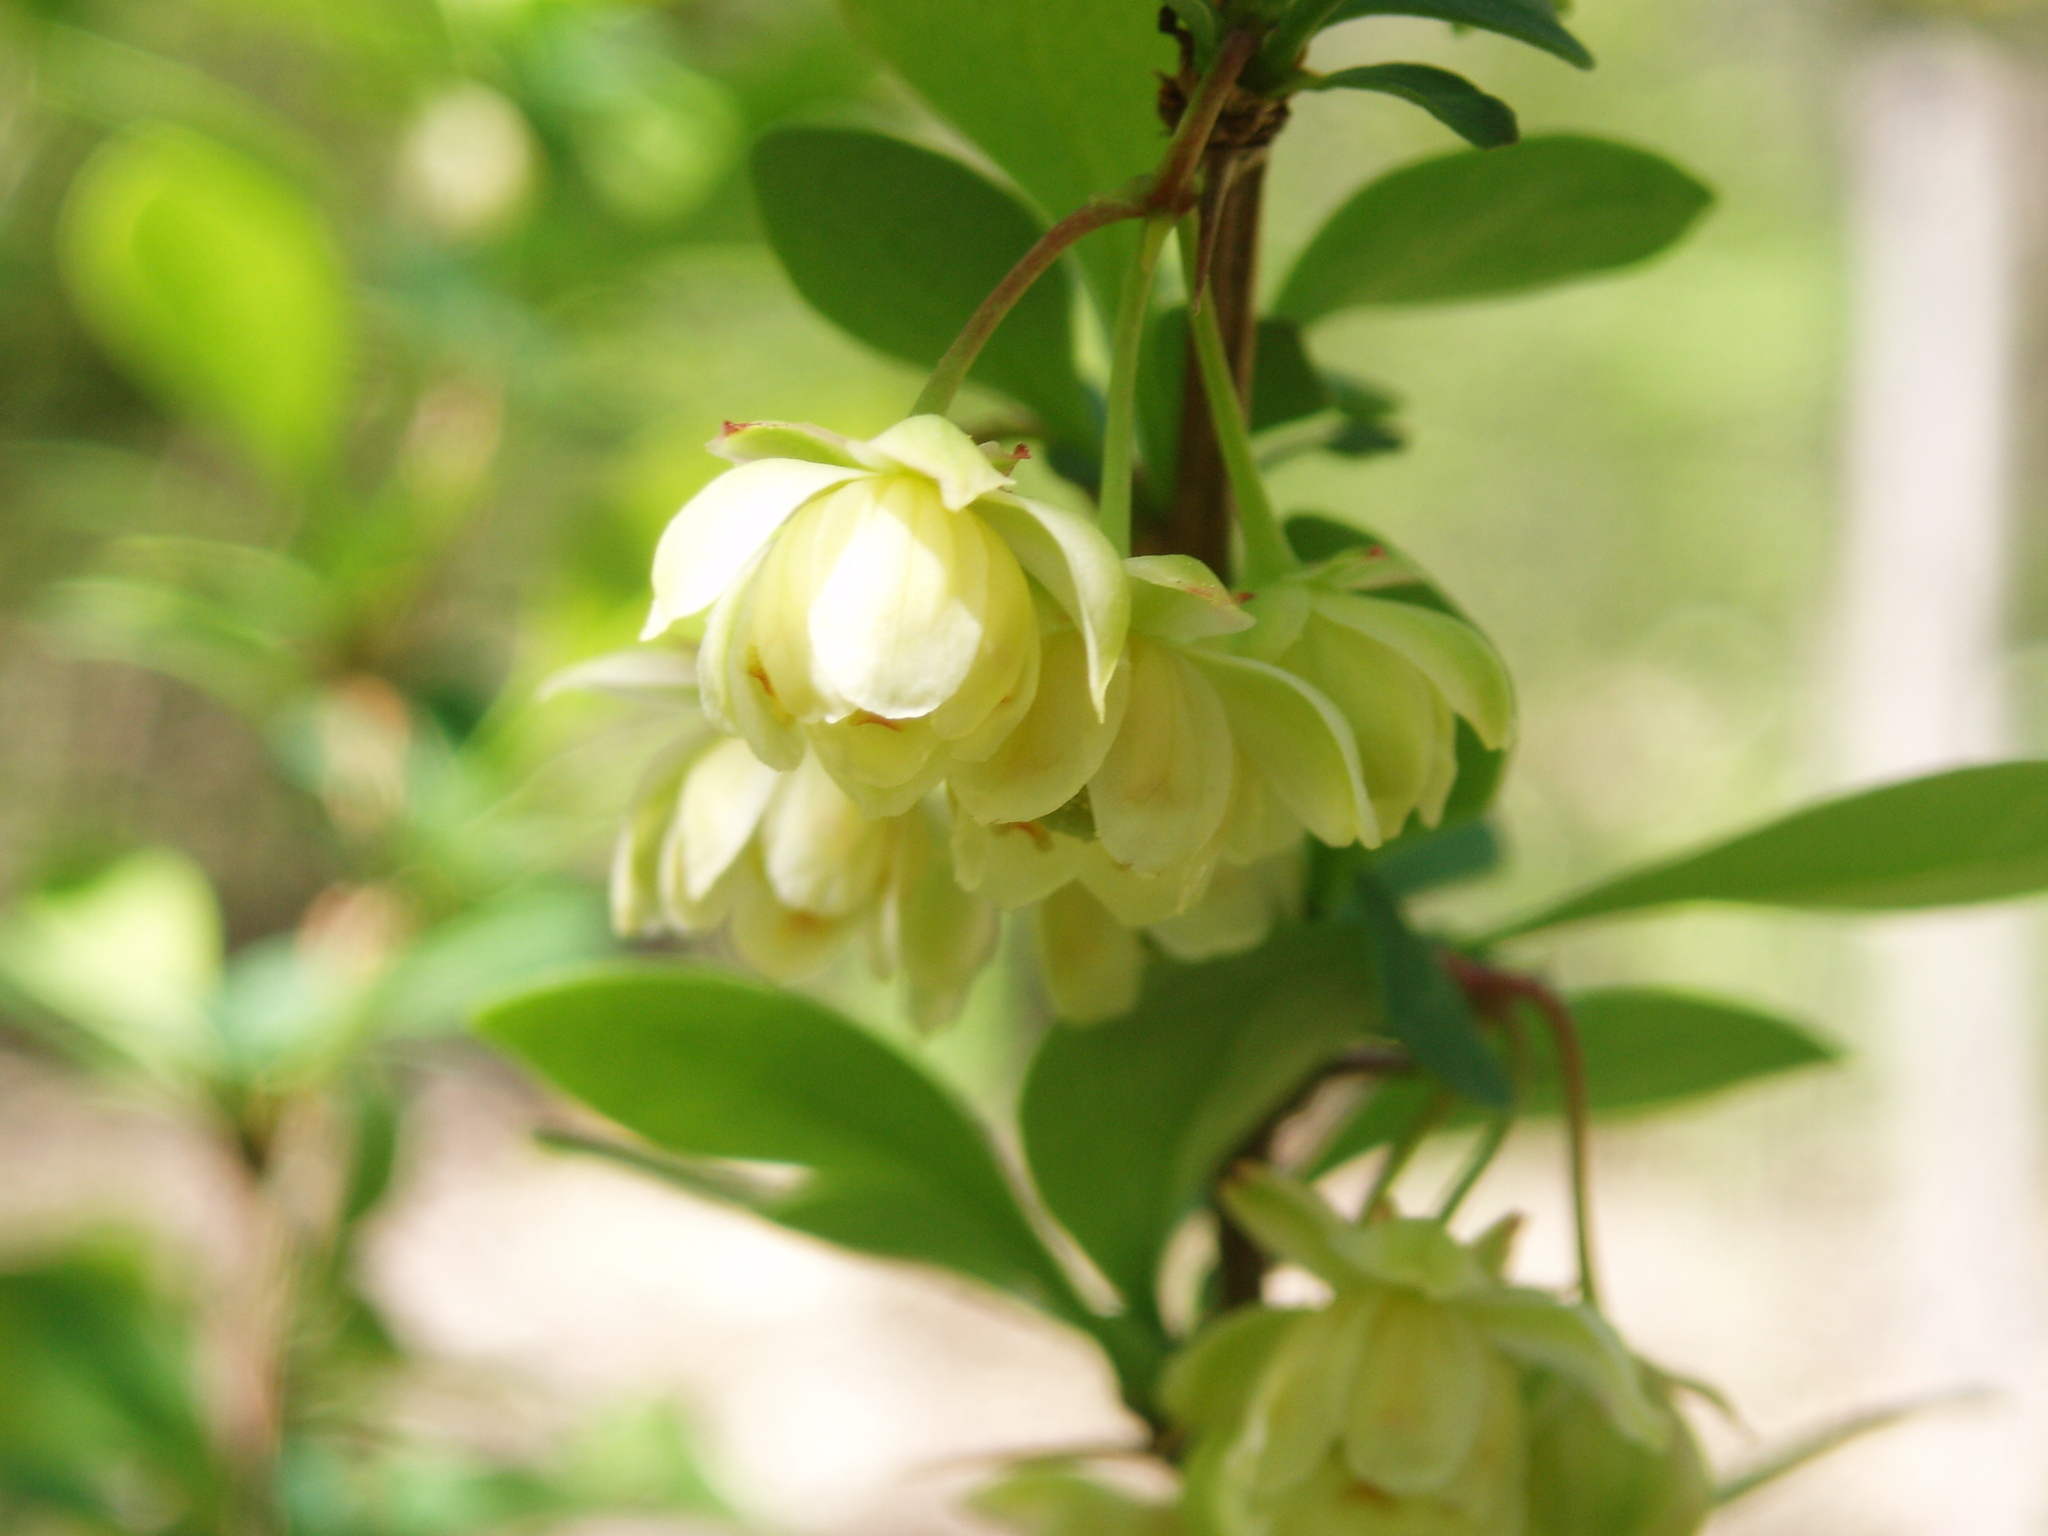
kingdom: Plantae
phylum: Tracheophyta
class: Magnoliopsida
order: Ranunculales
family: Berberidaceae
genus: Berberis
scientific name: Berberis thunbergii
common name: Japanese barberry
